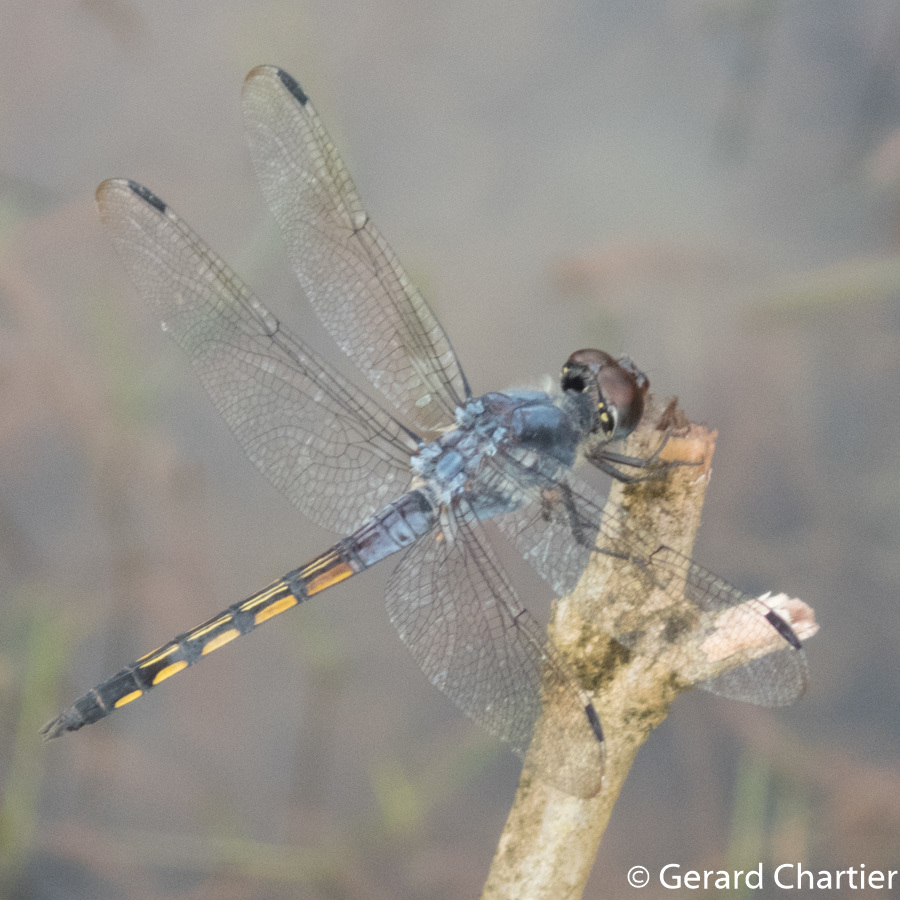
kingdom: Animalia
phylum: Arthropoda
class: Insecta
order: Odonata
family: Libellulidae
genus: Potamarcha
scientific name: Potamarcha congener
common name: Blue chaser
